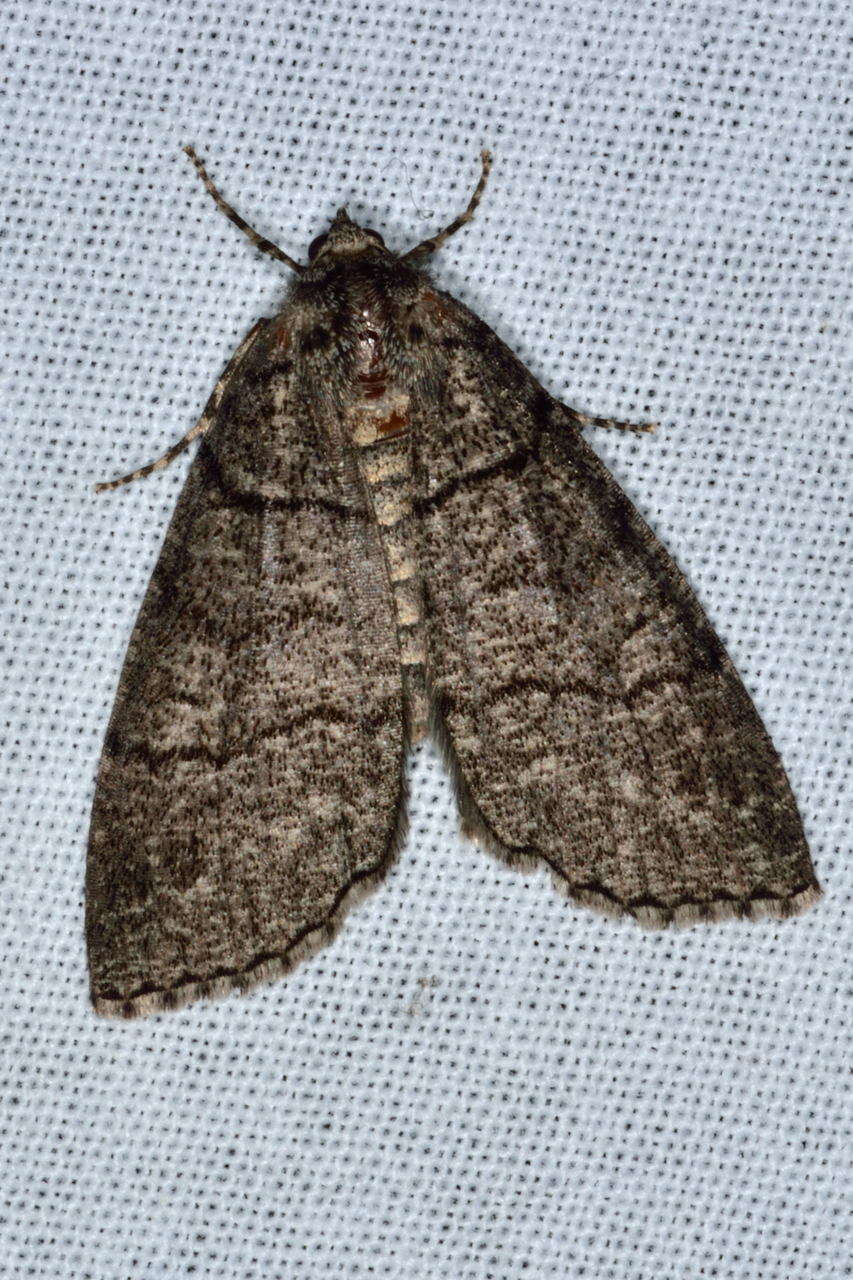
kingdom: Animalia
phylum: Arthropoda
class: Insecta
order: Lepidoptera
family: Geometridae
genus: Smyriodes
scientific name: Smyriodes aplectaria
